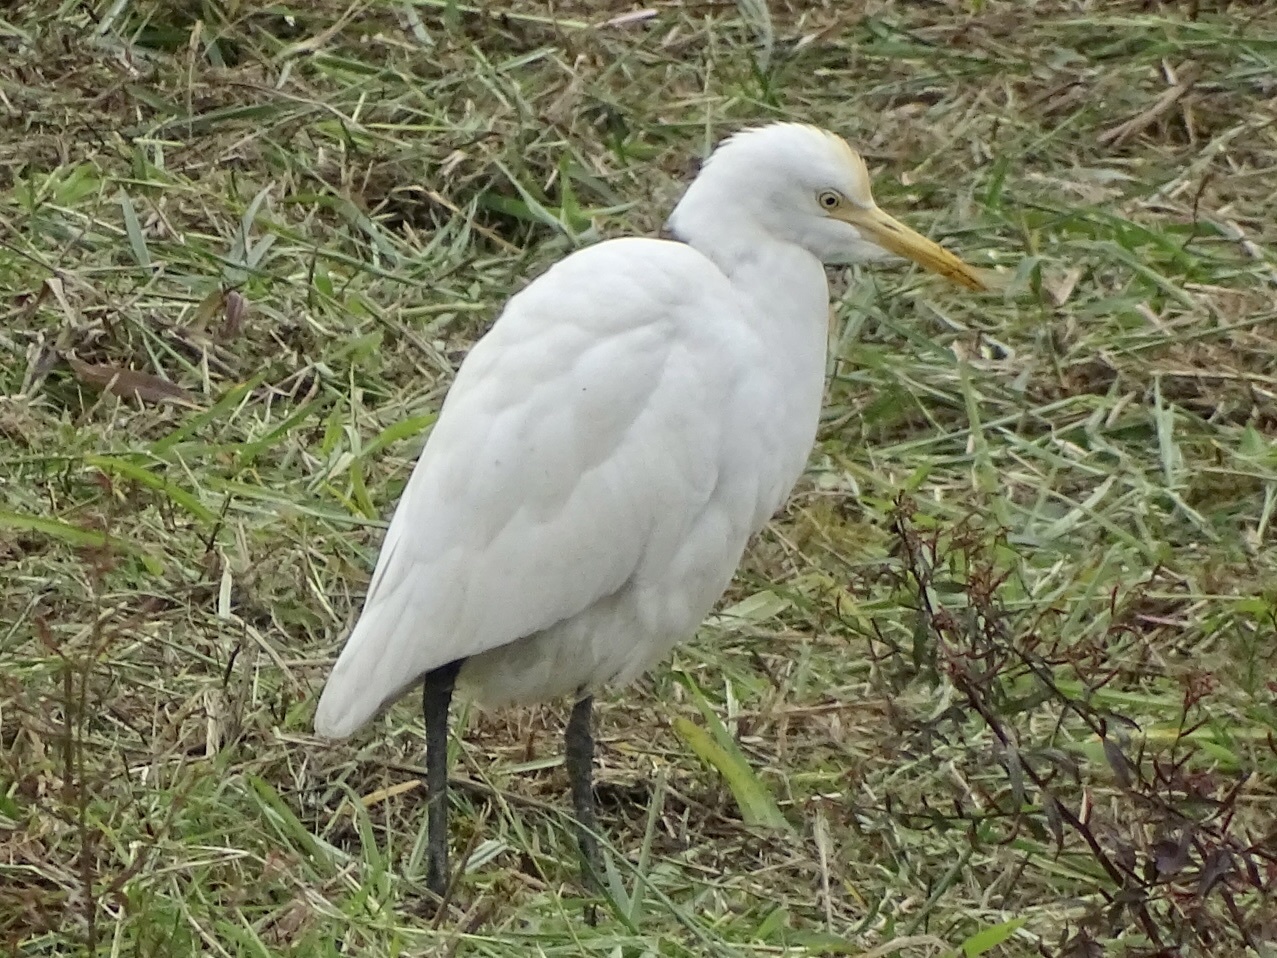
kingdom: Animalia
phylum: Chordata
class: Aves
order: Pelecaniformes
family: Ardeidae
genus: Bubulcus
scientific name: Bubulcus coromandus
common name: Eastern cattle egret
